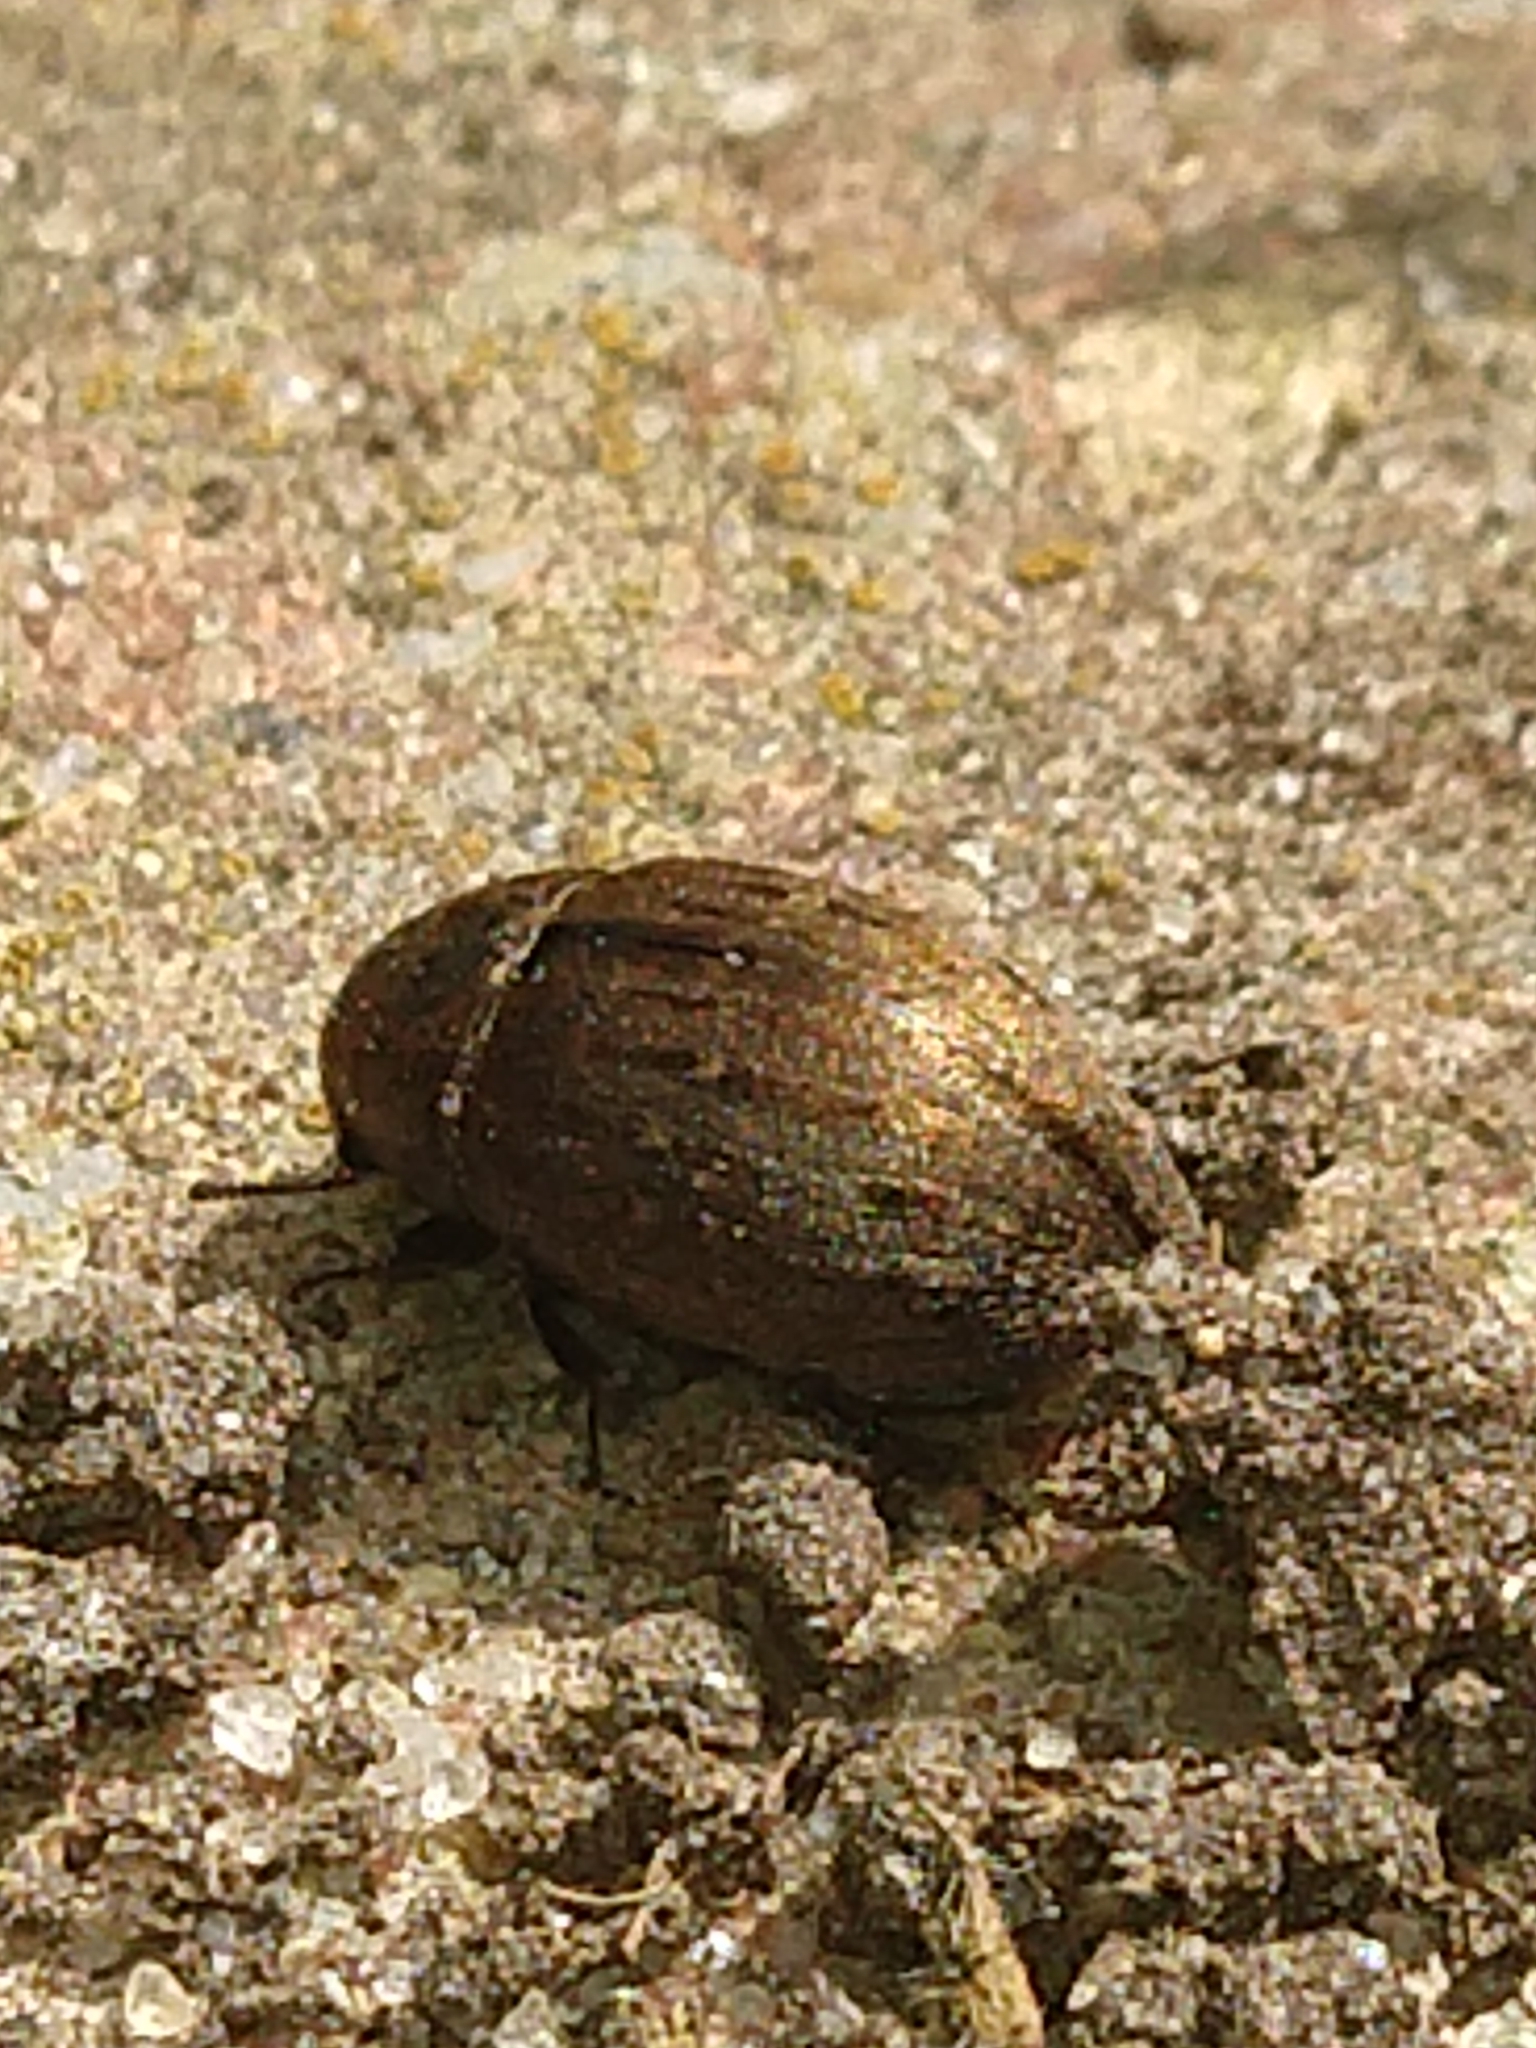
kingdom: Animalia
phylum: Arthropoda
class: Insecta
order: Coleoptera
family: Byrrhidae
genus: Byrrhus
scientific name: Byrrhus pilula
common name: Pill beetle
